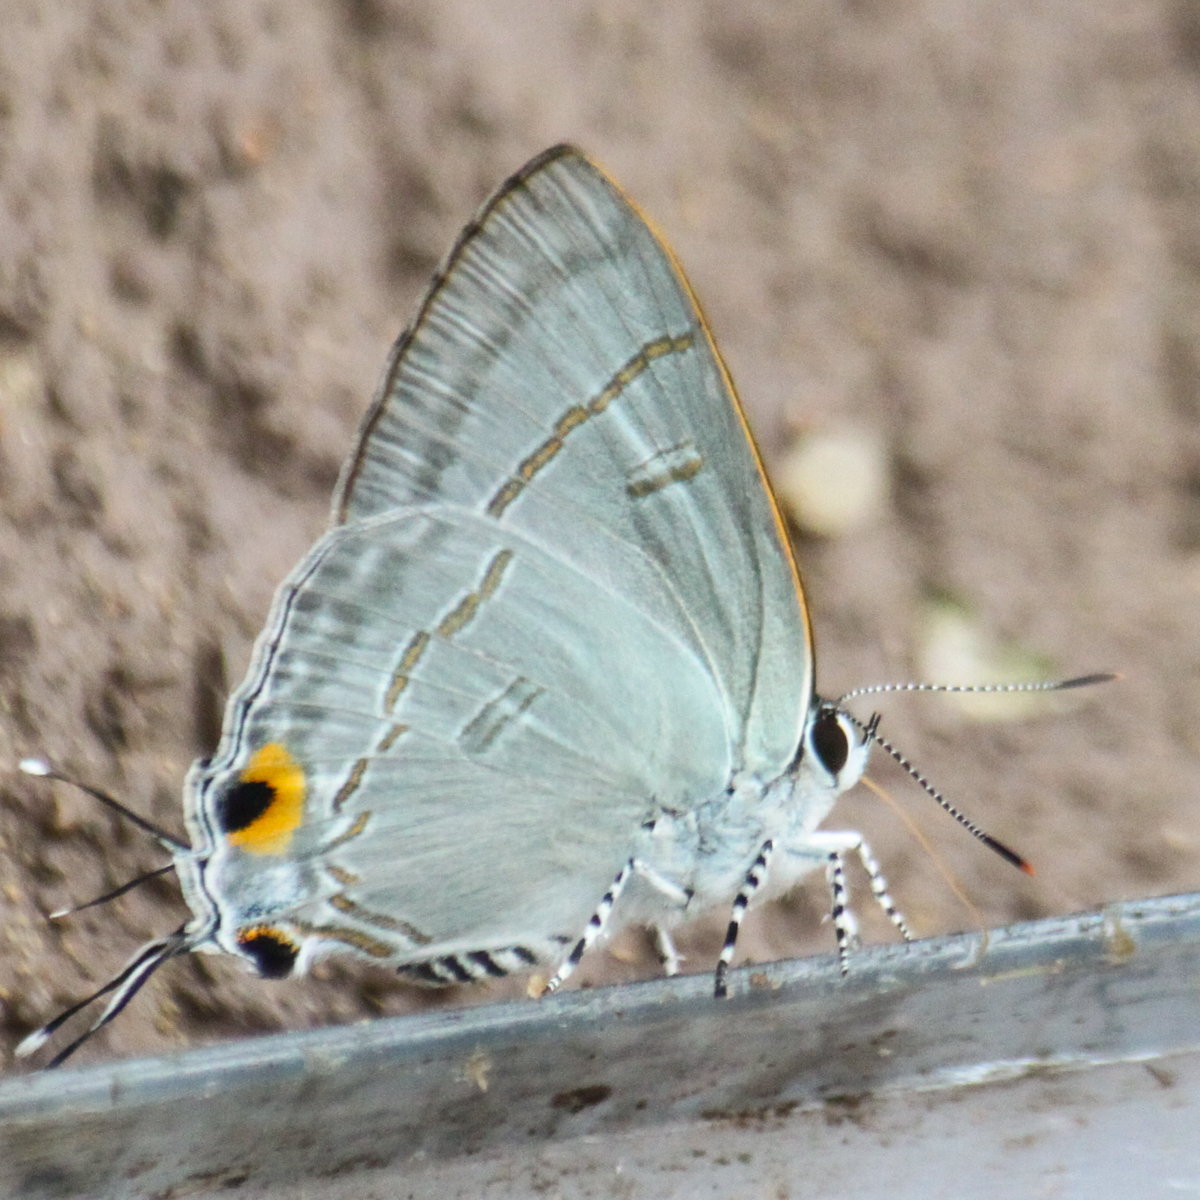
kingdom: Animalia
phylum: Arthropoda
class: Insecta
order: Lepidoptera
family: Lycaenidae
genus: Hypolycaena
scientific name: Hypolycaena erylus
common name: Common tit
